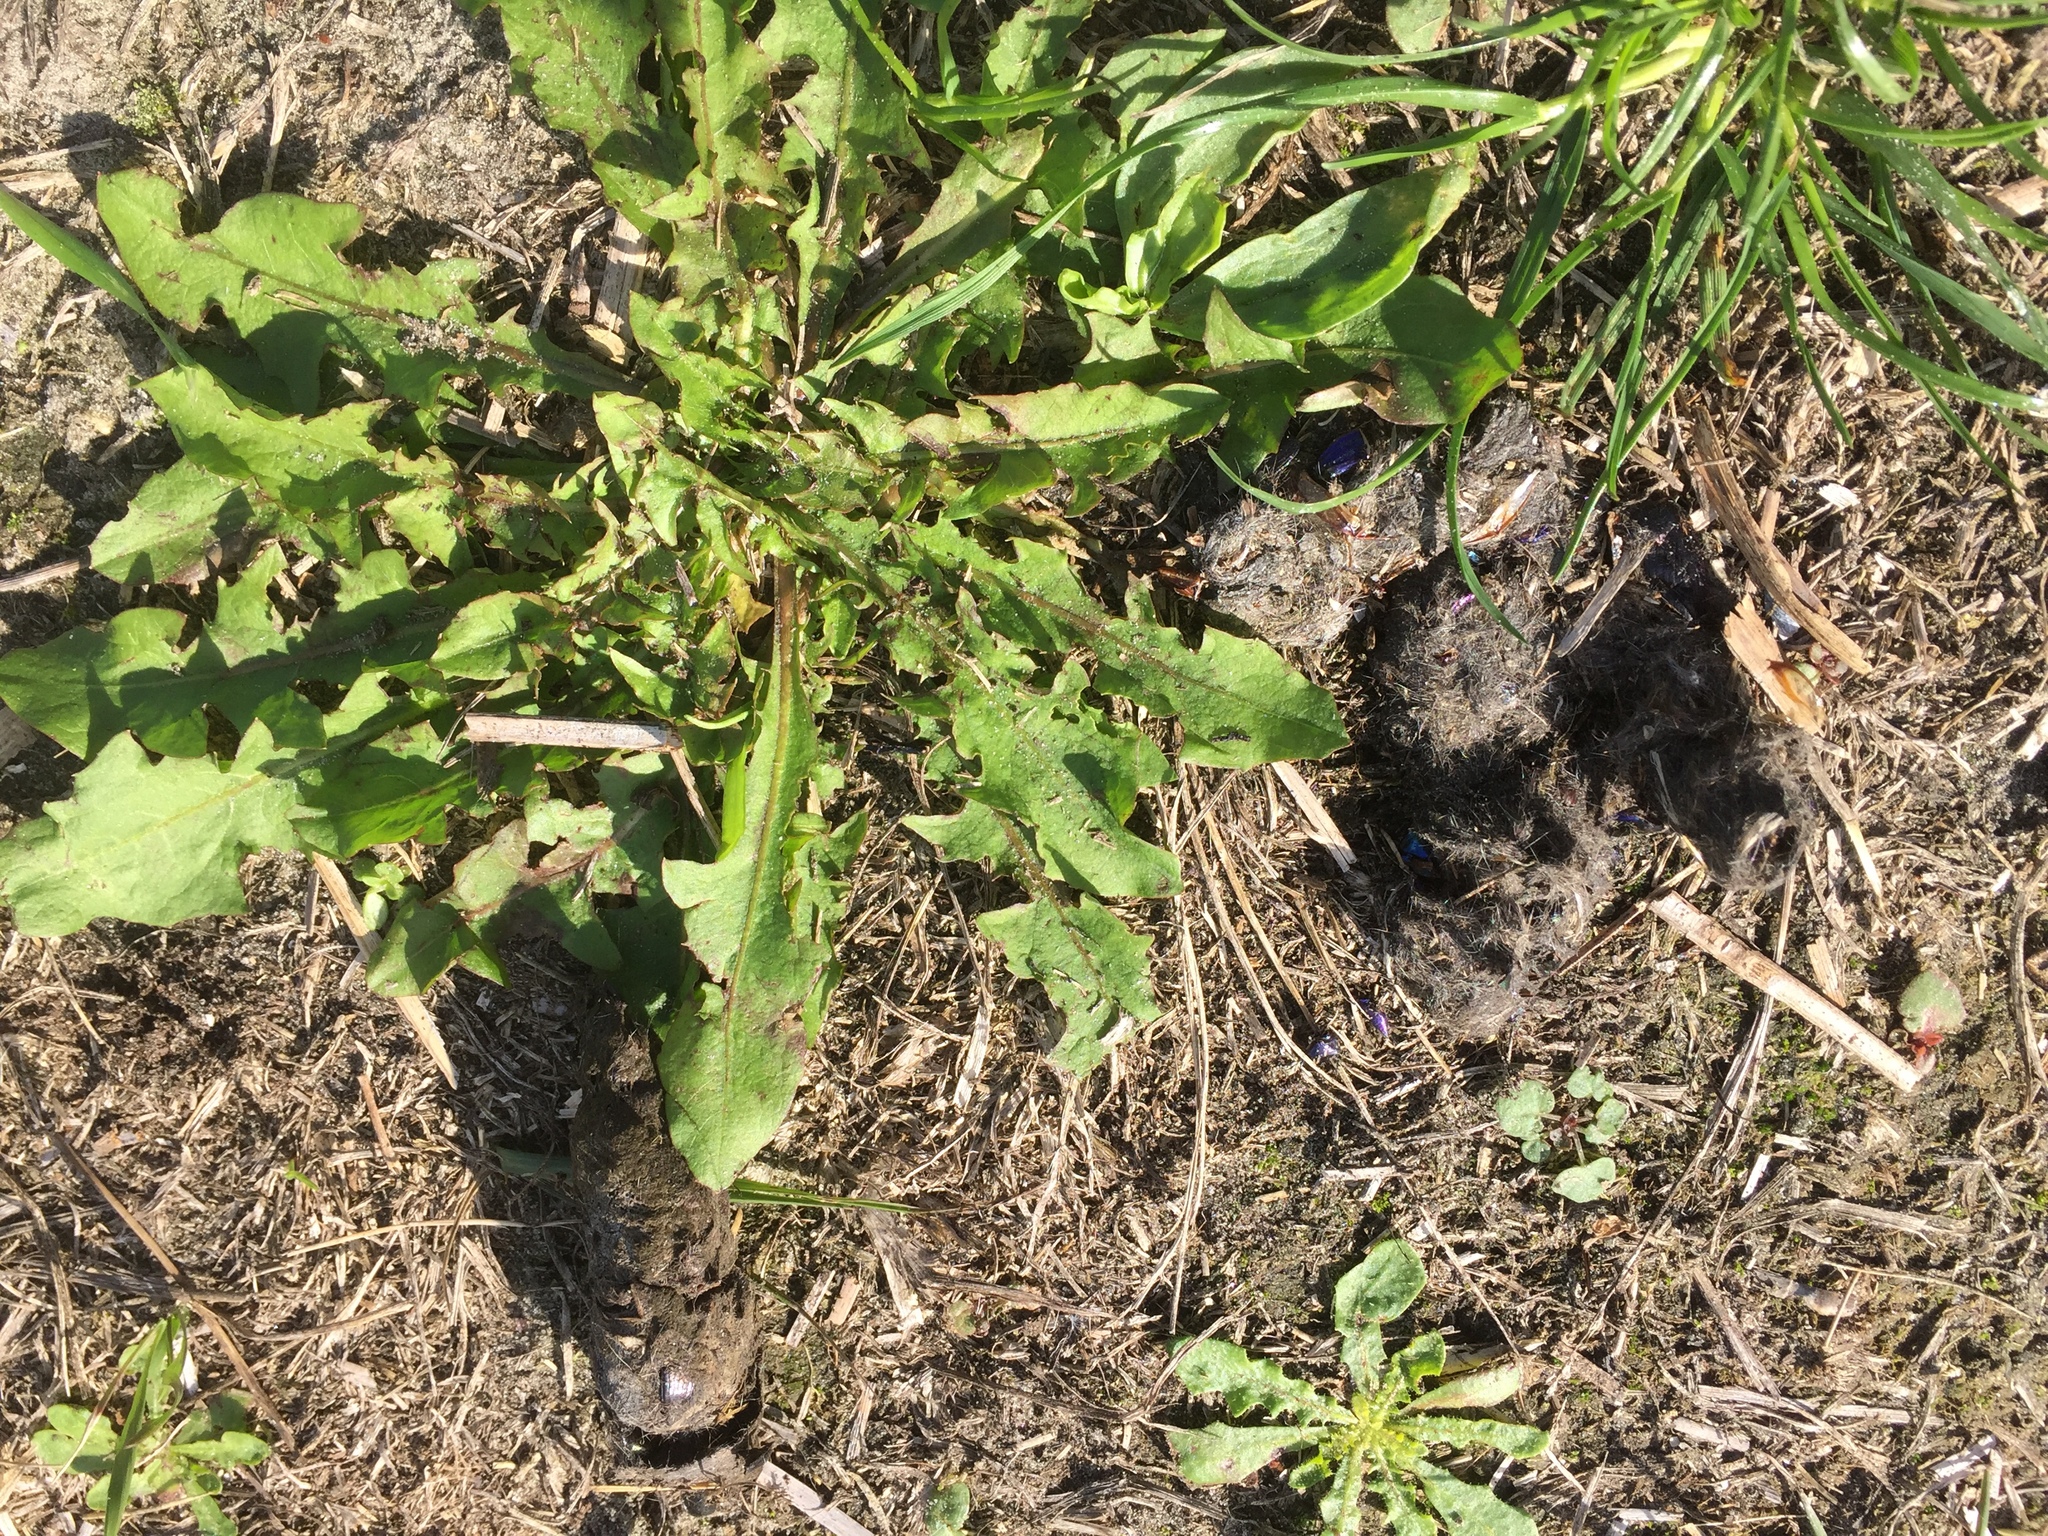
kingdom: Plantae
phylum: Tracheophyta
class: Magnoliopsida
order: Asterales
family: Asteraceae
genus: Taraxacum
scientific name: Taraxacum officinale
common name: Common dandelion
